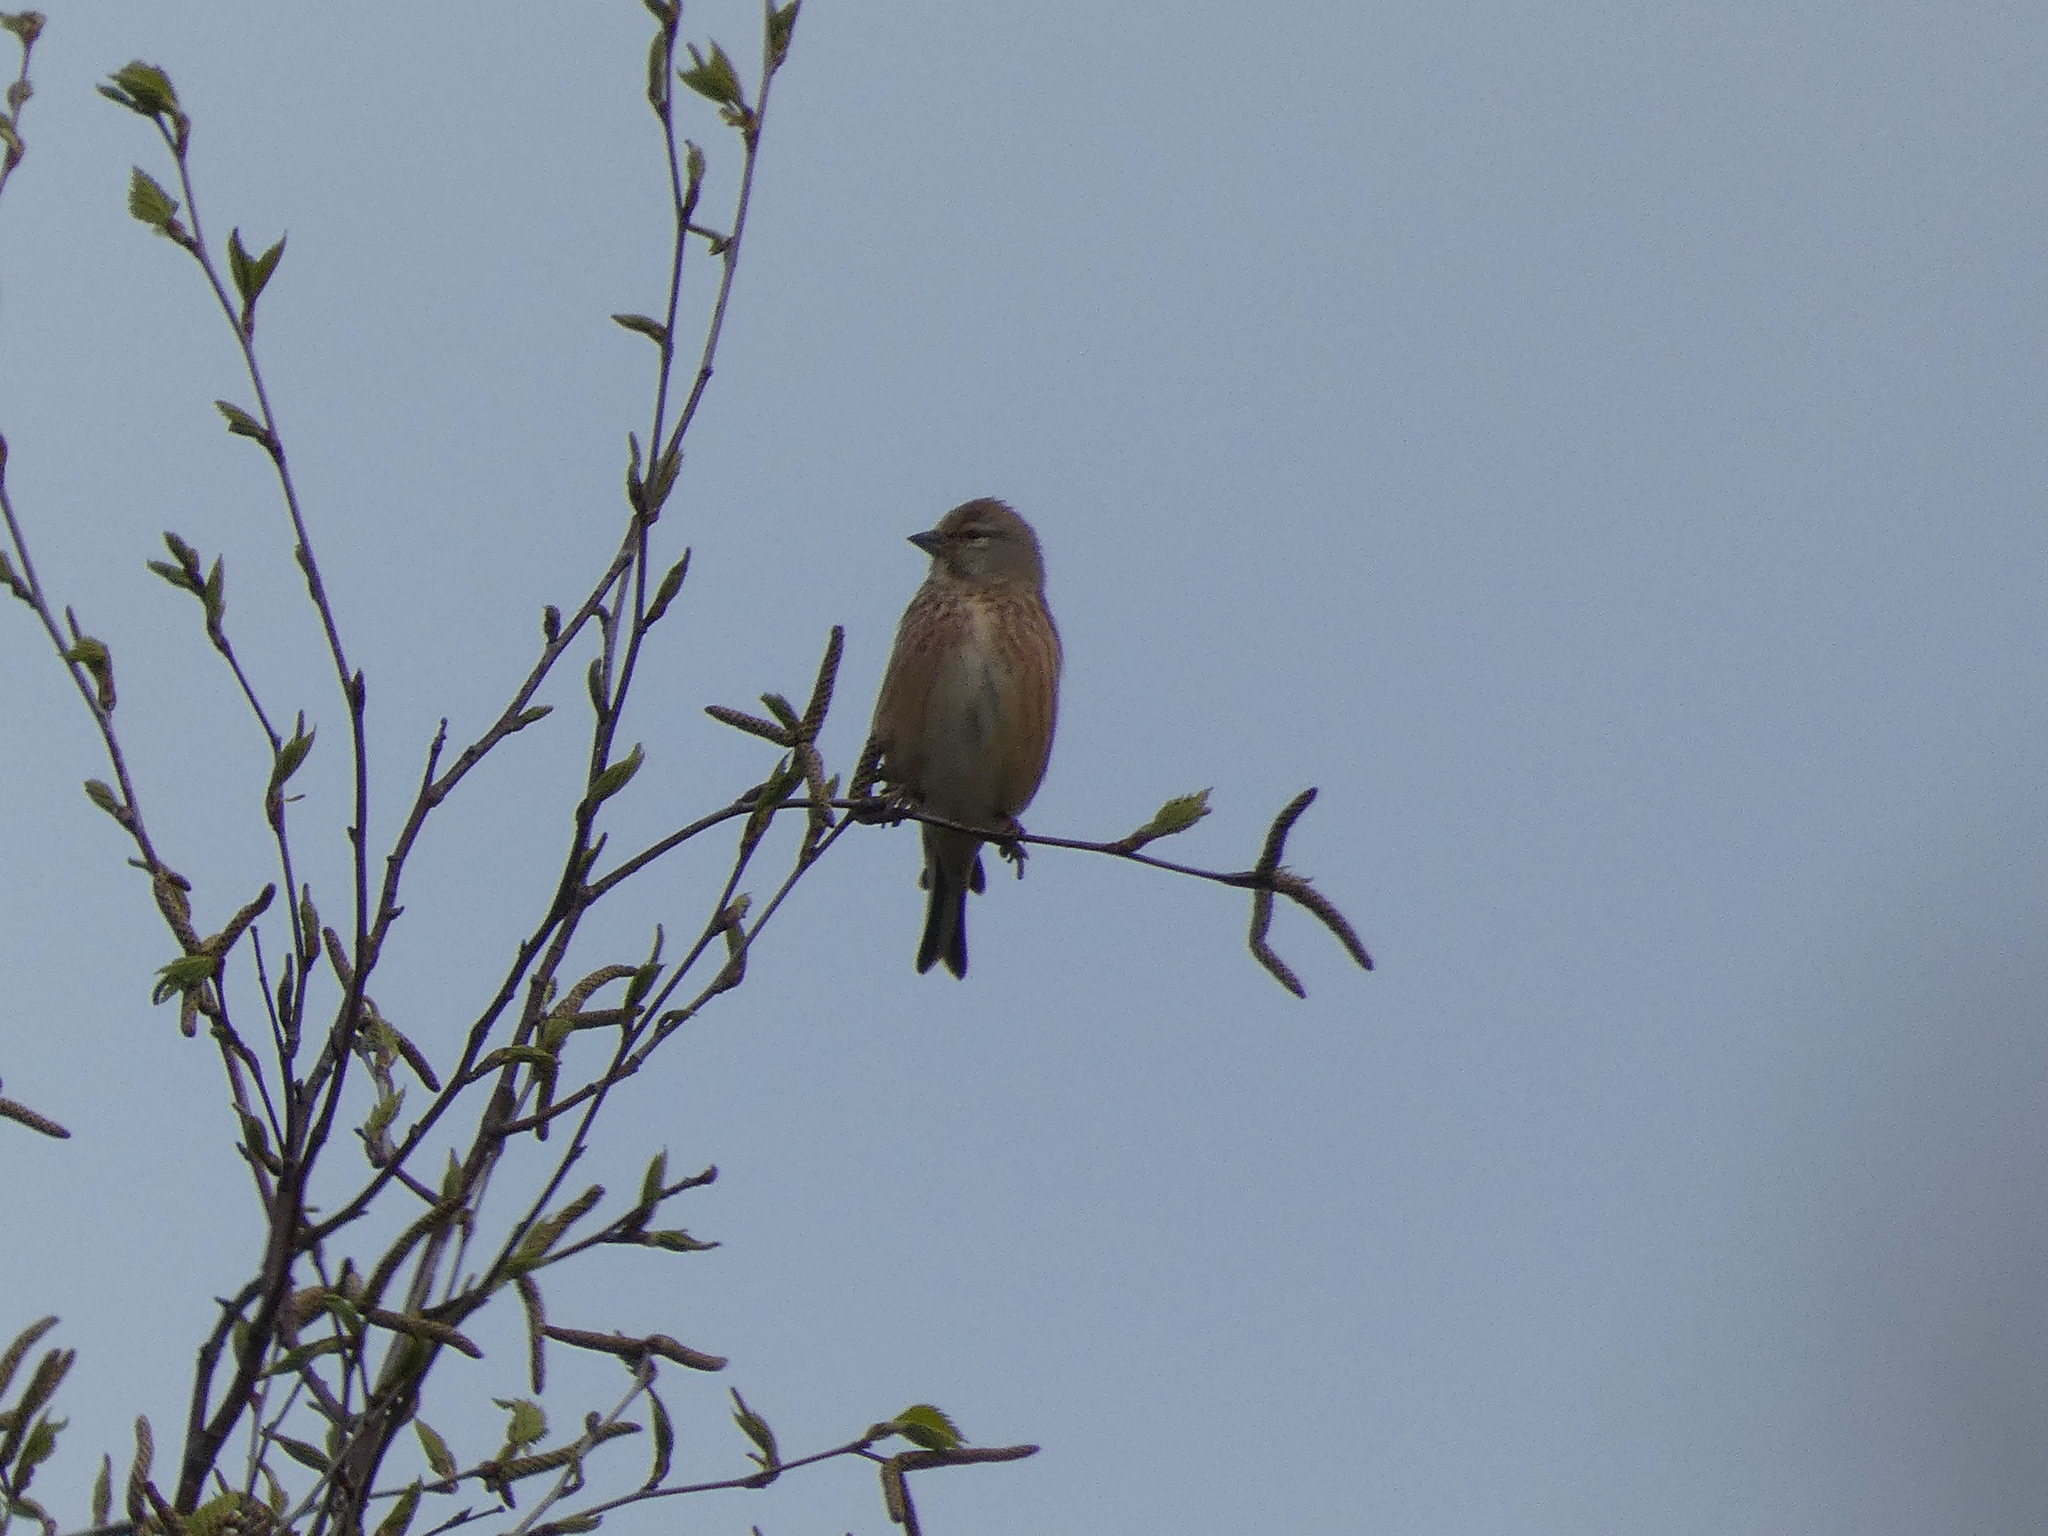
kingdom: Animalia
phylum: Chordata
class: Aves
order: Passeriformes
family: Fringillidae
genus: Linaria
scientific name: Linaria cannabina
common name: Common linnet
